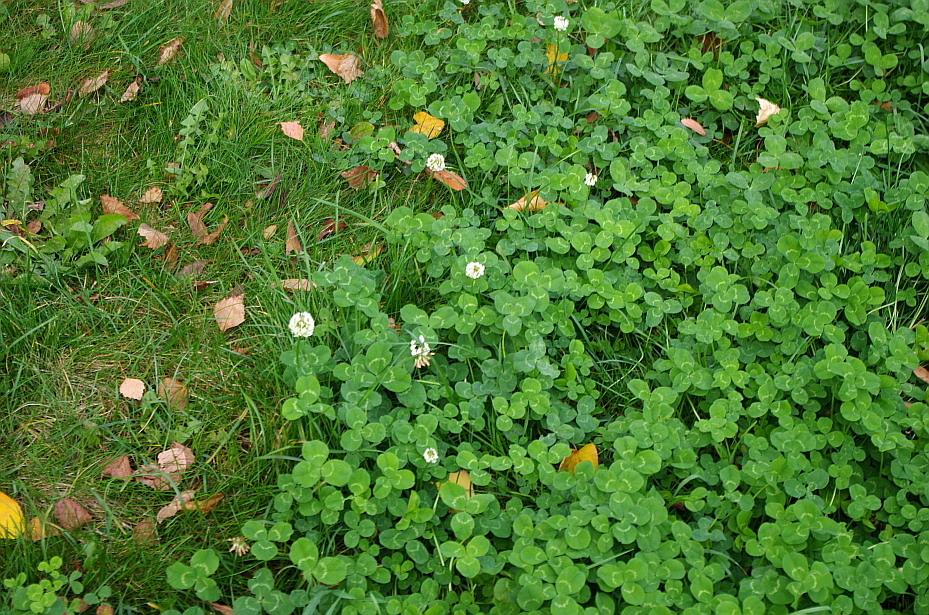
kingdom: Plantae
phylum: Tracheophyta
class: Magnoliopsida
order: Fabales
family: Fabaceae
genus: Trifolium
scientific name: Trifolium repens
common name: White clover
